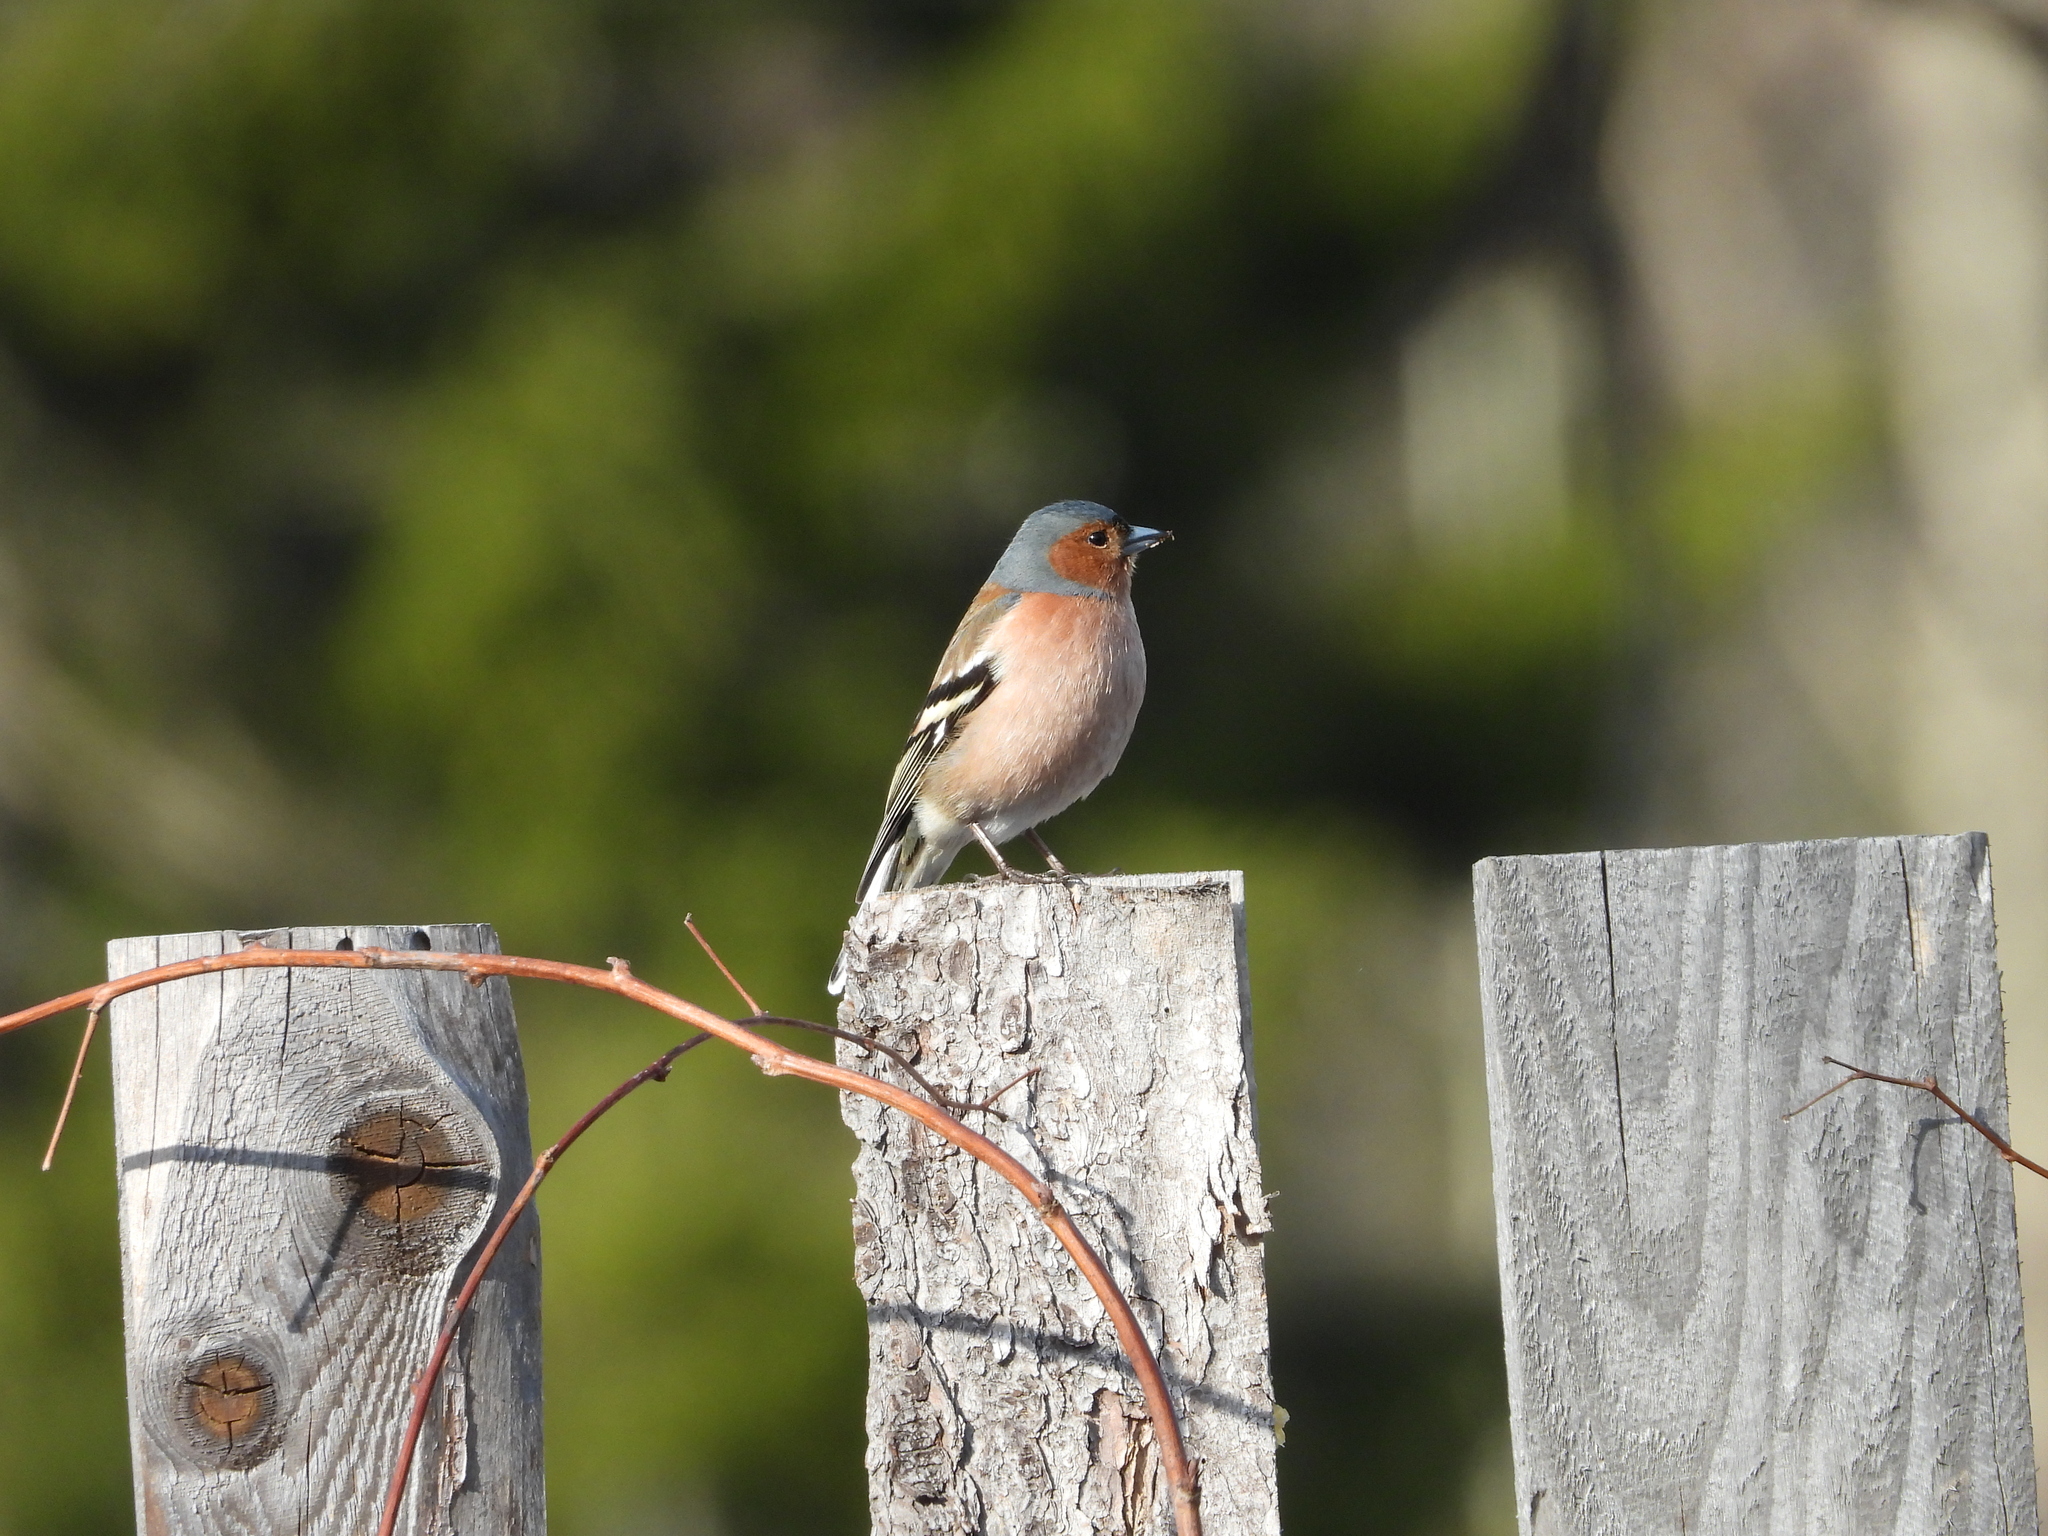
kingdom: Animalia
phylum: Chordata
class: Aves
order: Passeriformes
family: Fringillidae
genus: Fringilla
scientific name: Fringilla coelebs
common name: Common chaffinch
